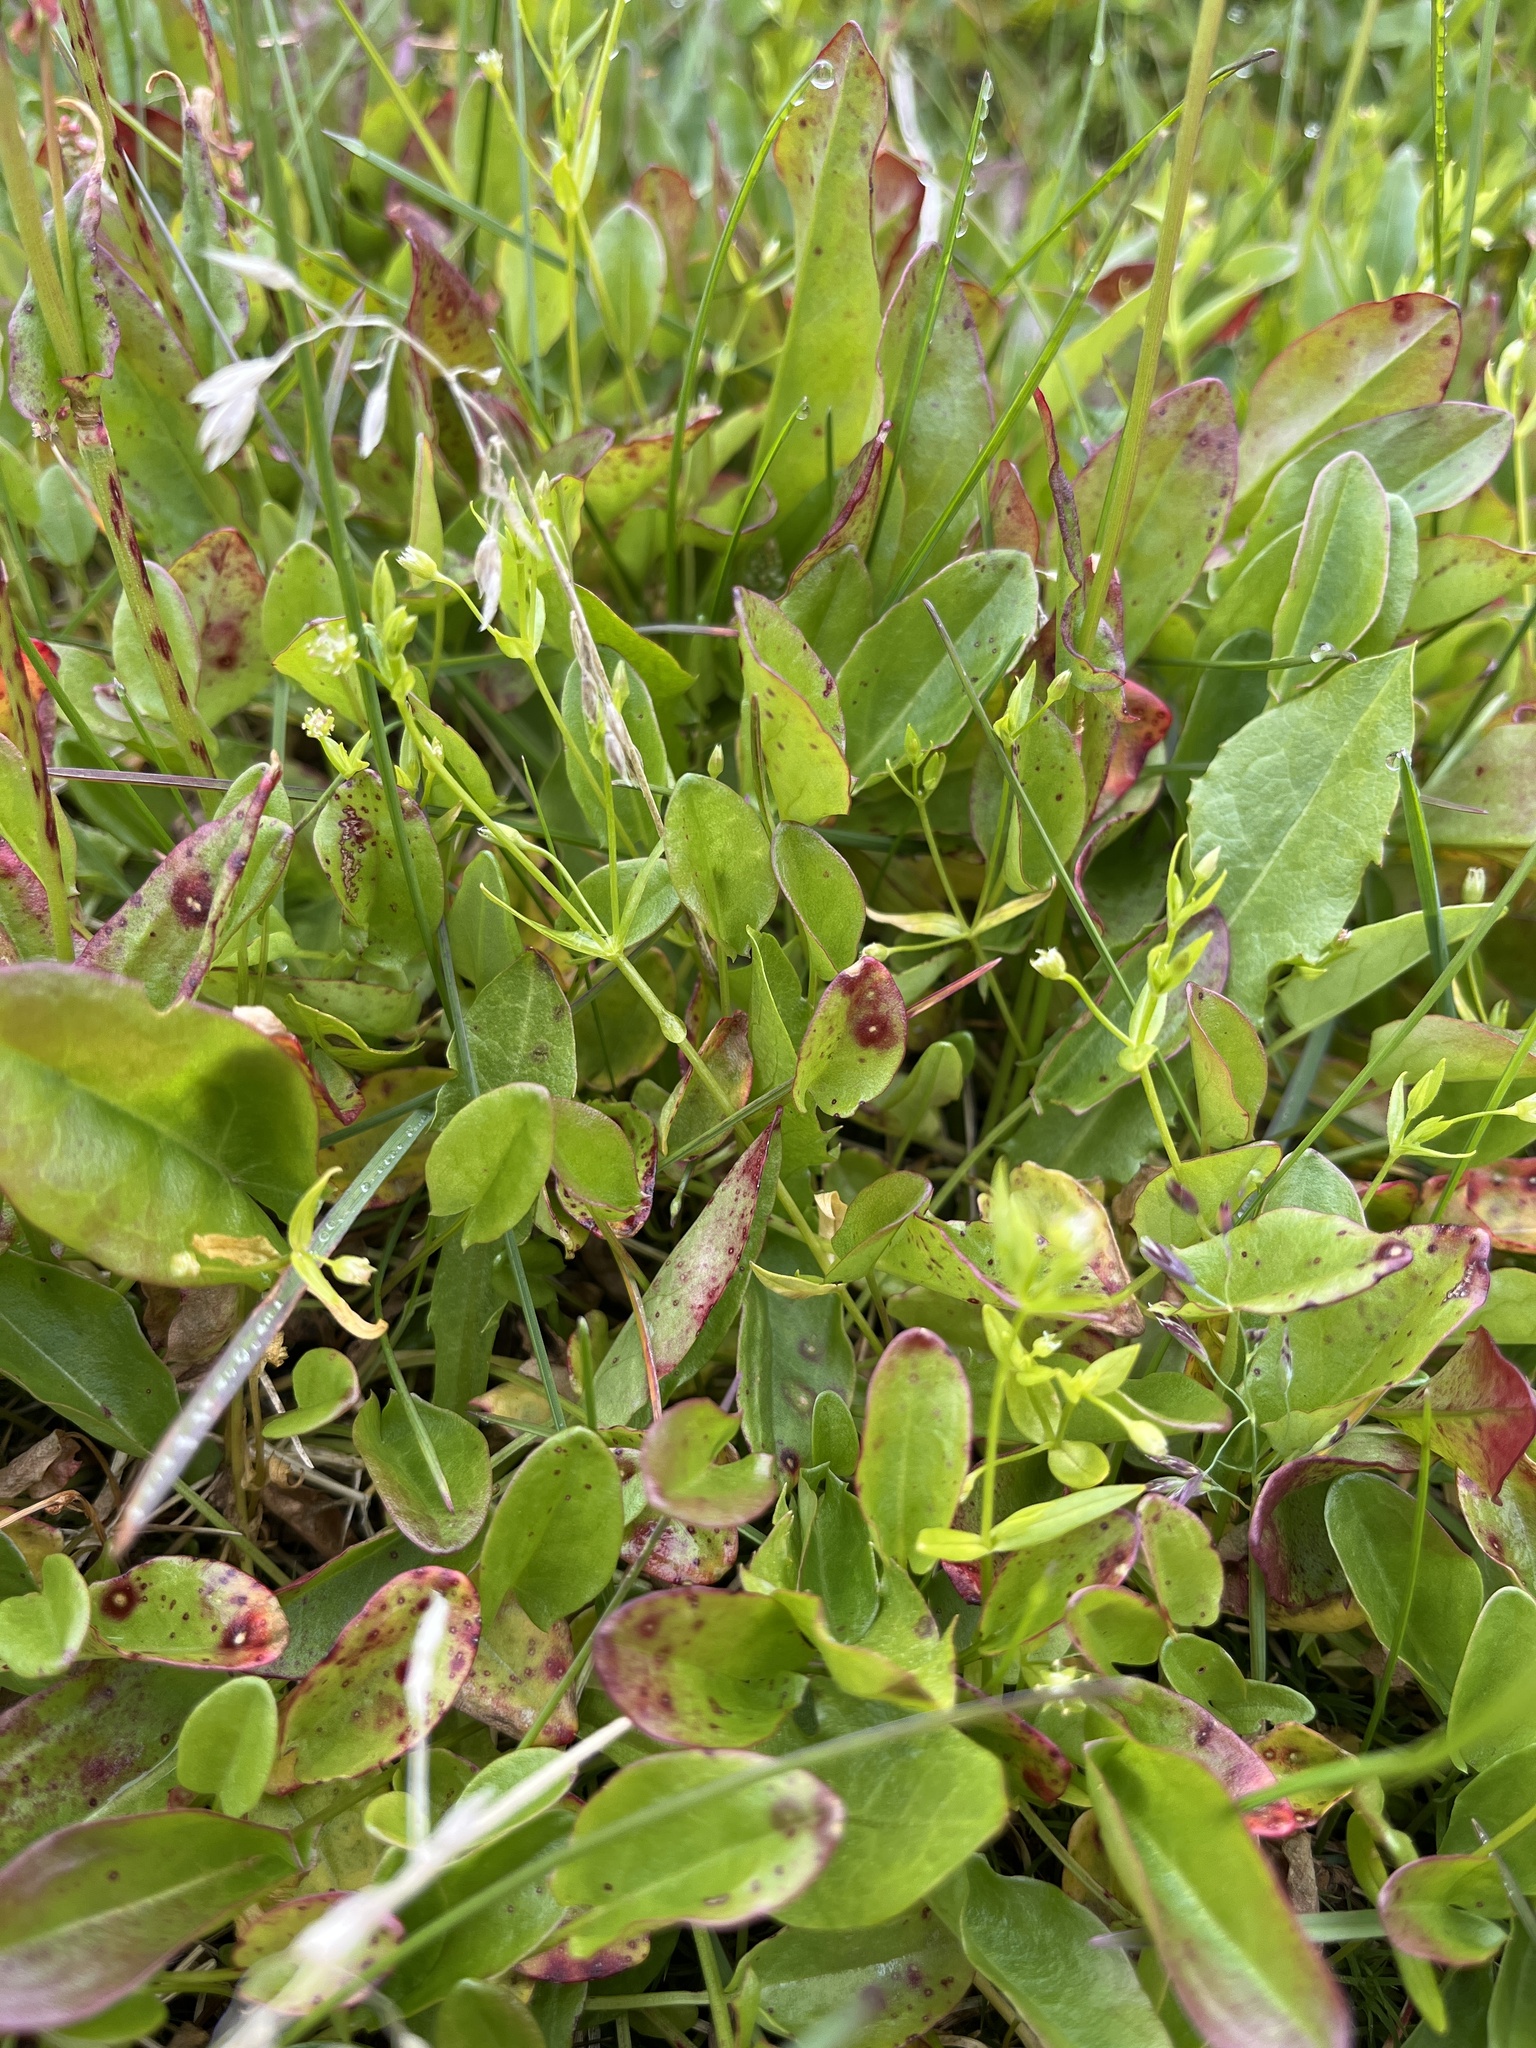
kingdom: Plantae
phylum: Tracheophyta
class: Magnoliopsida
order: Caryophyllales
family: Caryophyllaceae
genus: Stellaria
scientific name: Stellaria calycantha
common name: Northern starwort
